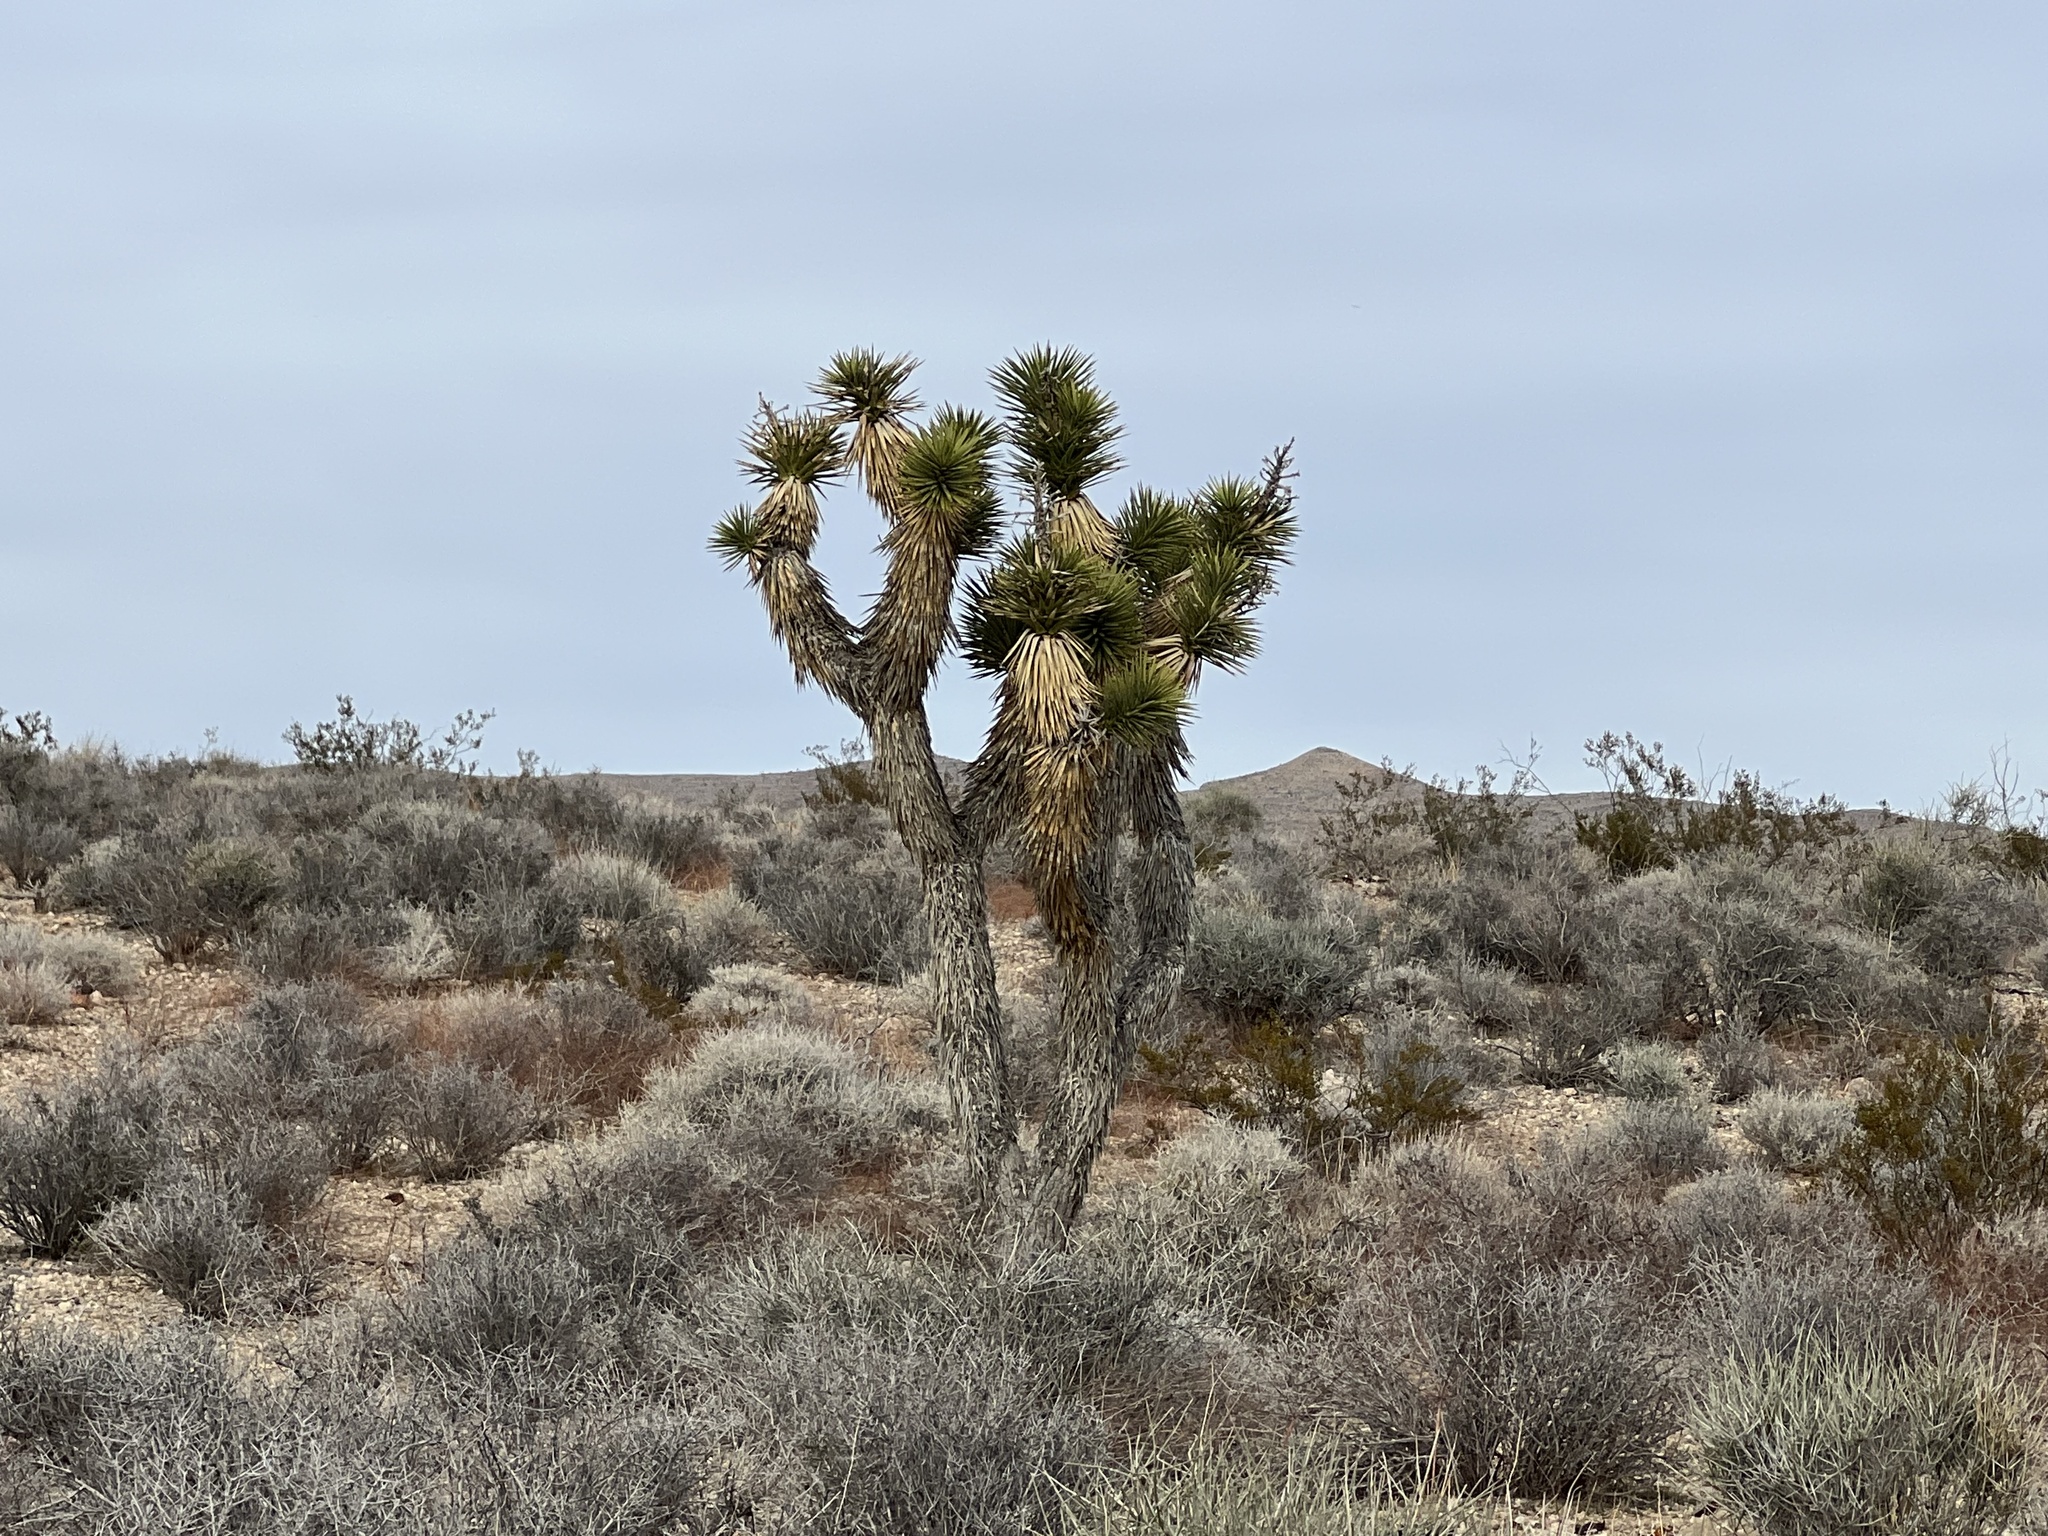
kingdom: Plantae
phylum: Tracheophyta
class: Liliopsida
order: Asparagales
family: Asparagaceae
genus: Yucca
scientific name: Yucca brevifolia
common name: Joshua tree
